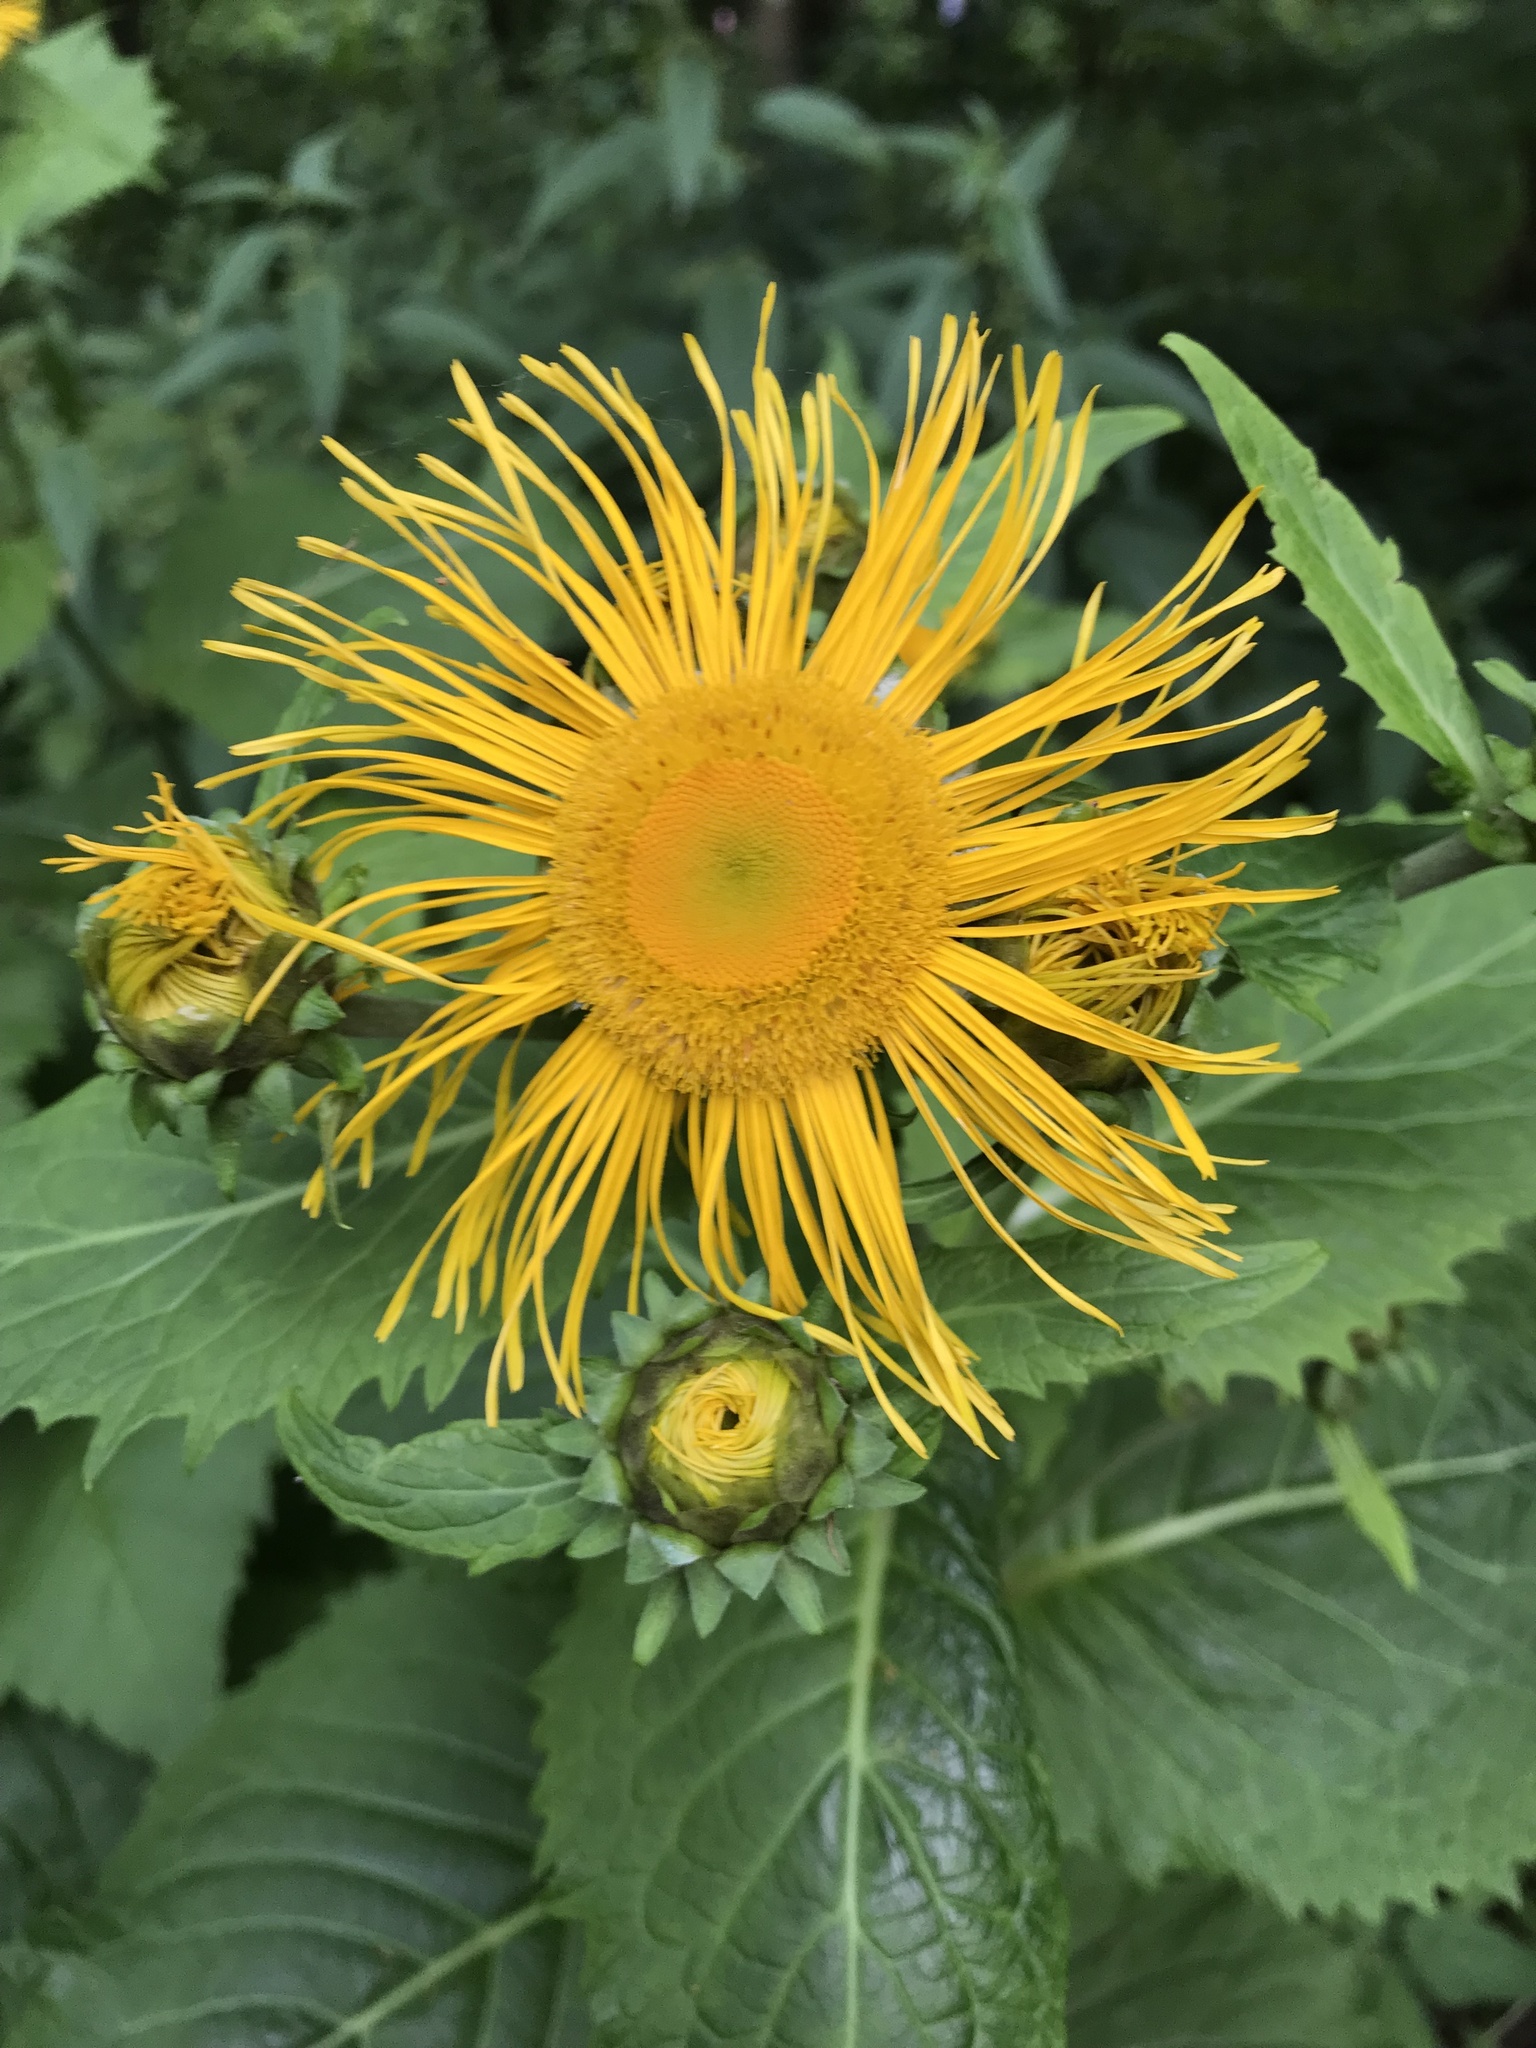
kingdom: Plantae
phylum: Tracheophyta
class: Magnoliopsida
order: Asterales
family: Asteraceae
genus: Telekia
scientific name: Telekia speciosa
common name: Yellow oxeye
